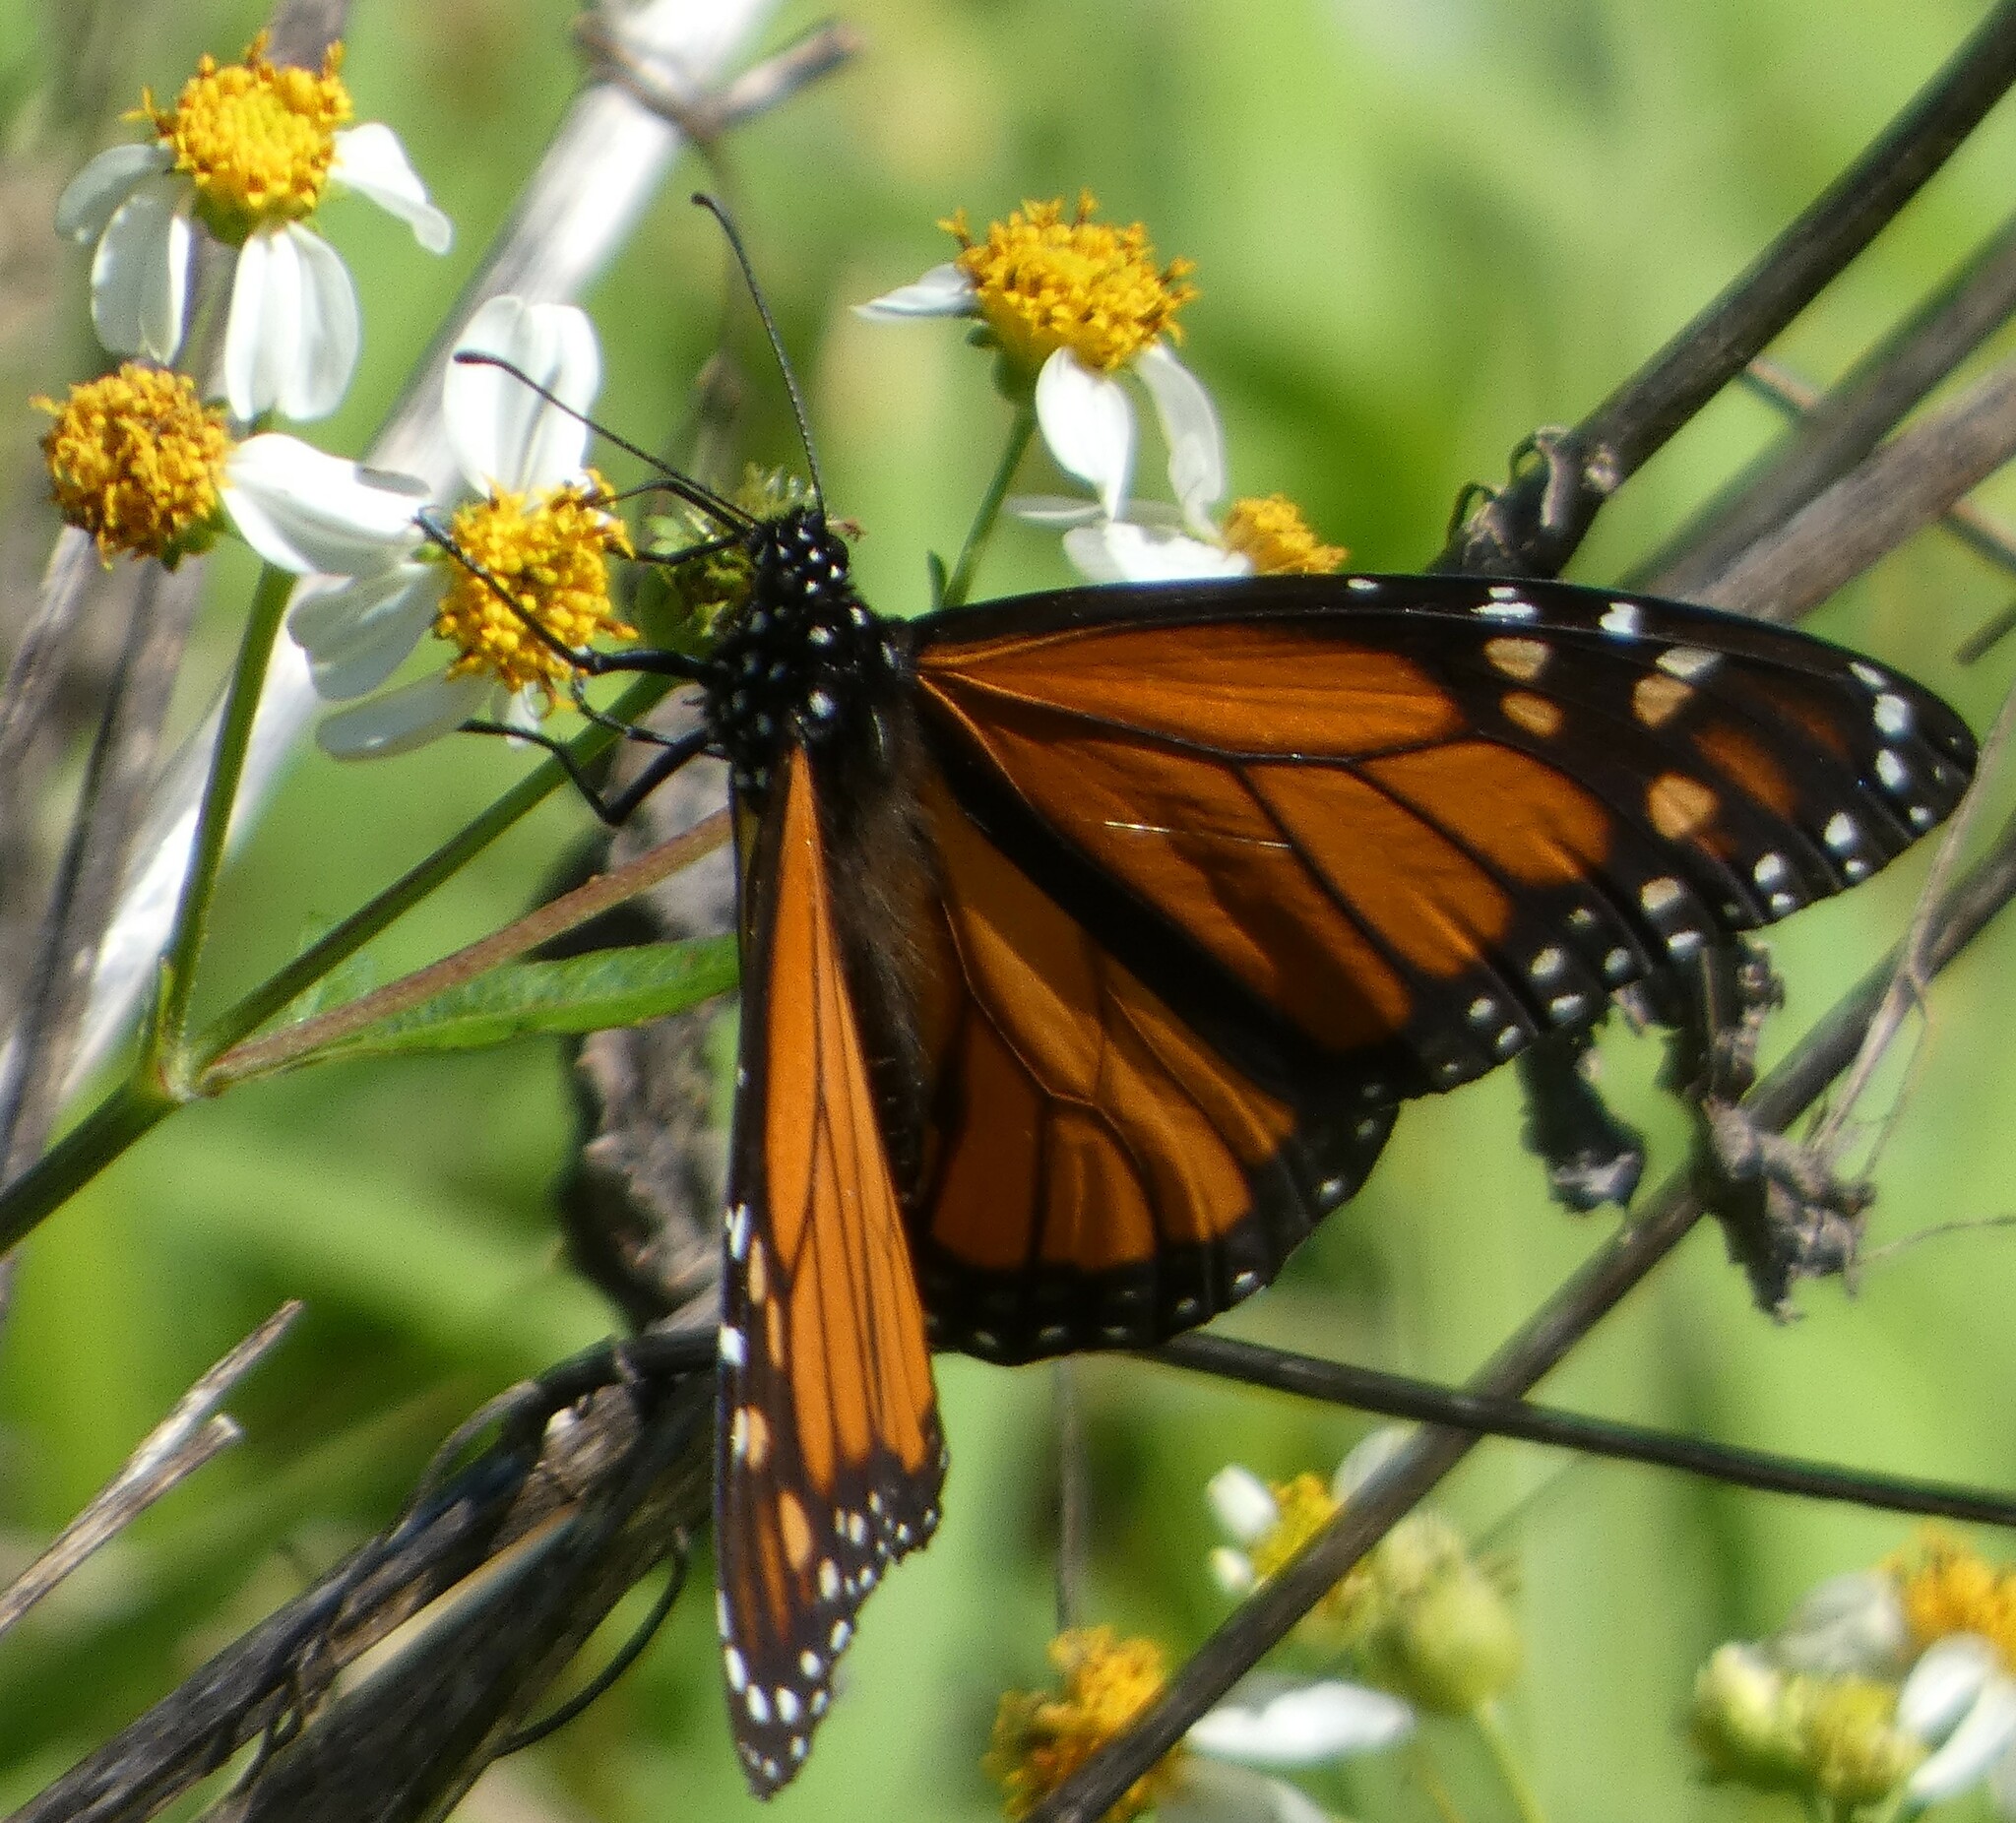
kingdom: Animalia
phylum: Arthropoda
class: Insecta
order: Lepidoptera
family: Nymphalidae
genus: Danaus
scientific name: Danaus plexippus
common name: Monarch
